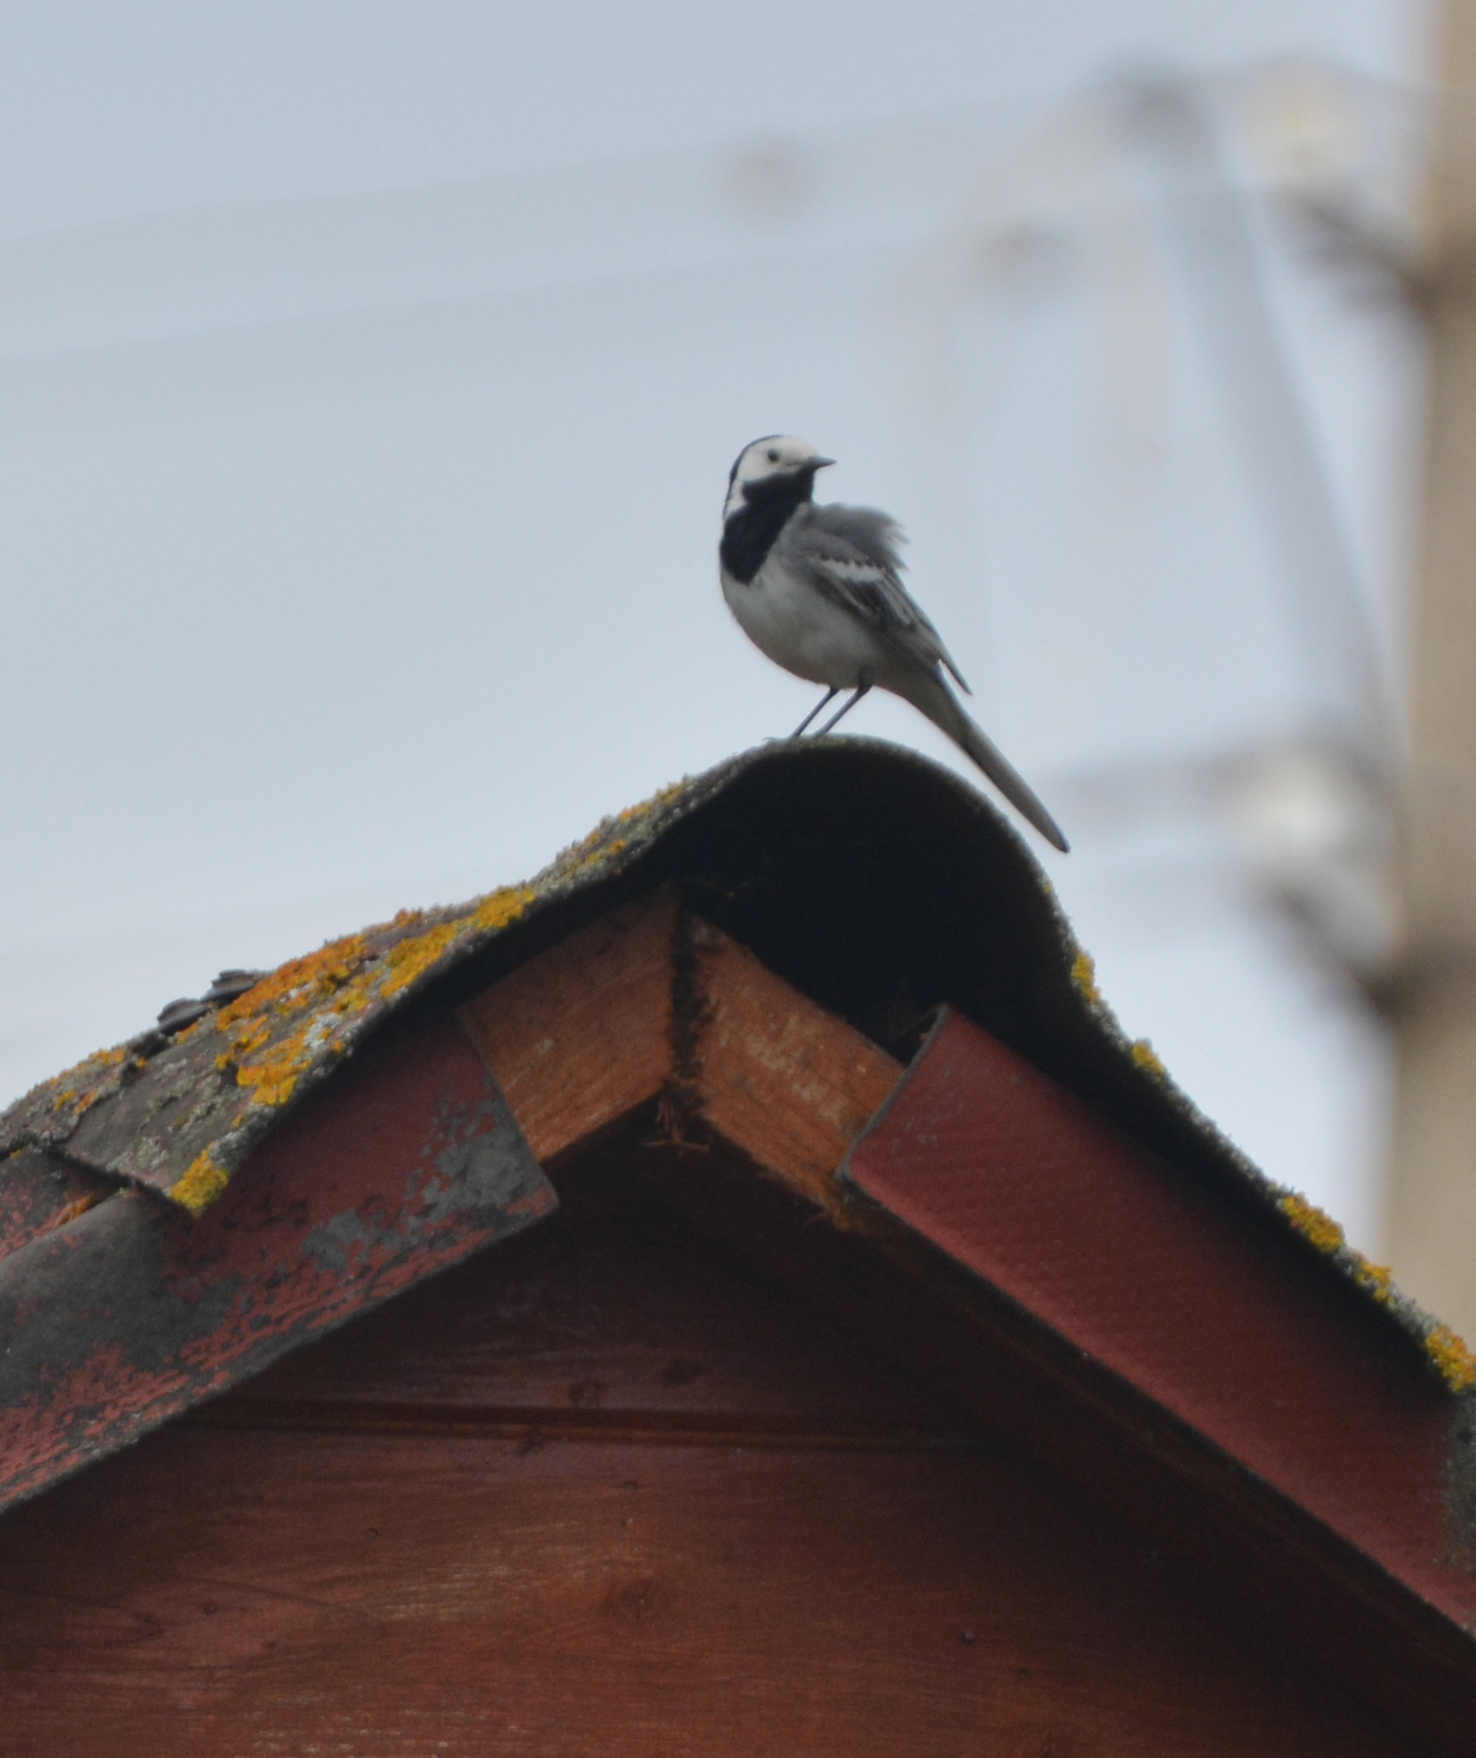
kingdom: Animalia
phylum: Chordata
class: Aves
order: Passeriformes
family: Motacillidae
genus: Motacilla
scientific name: Motacilla alba
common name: White wagtail
